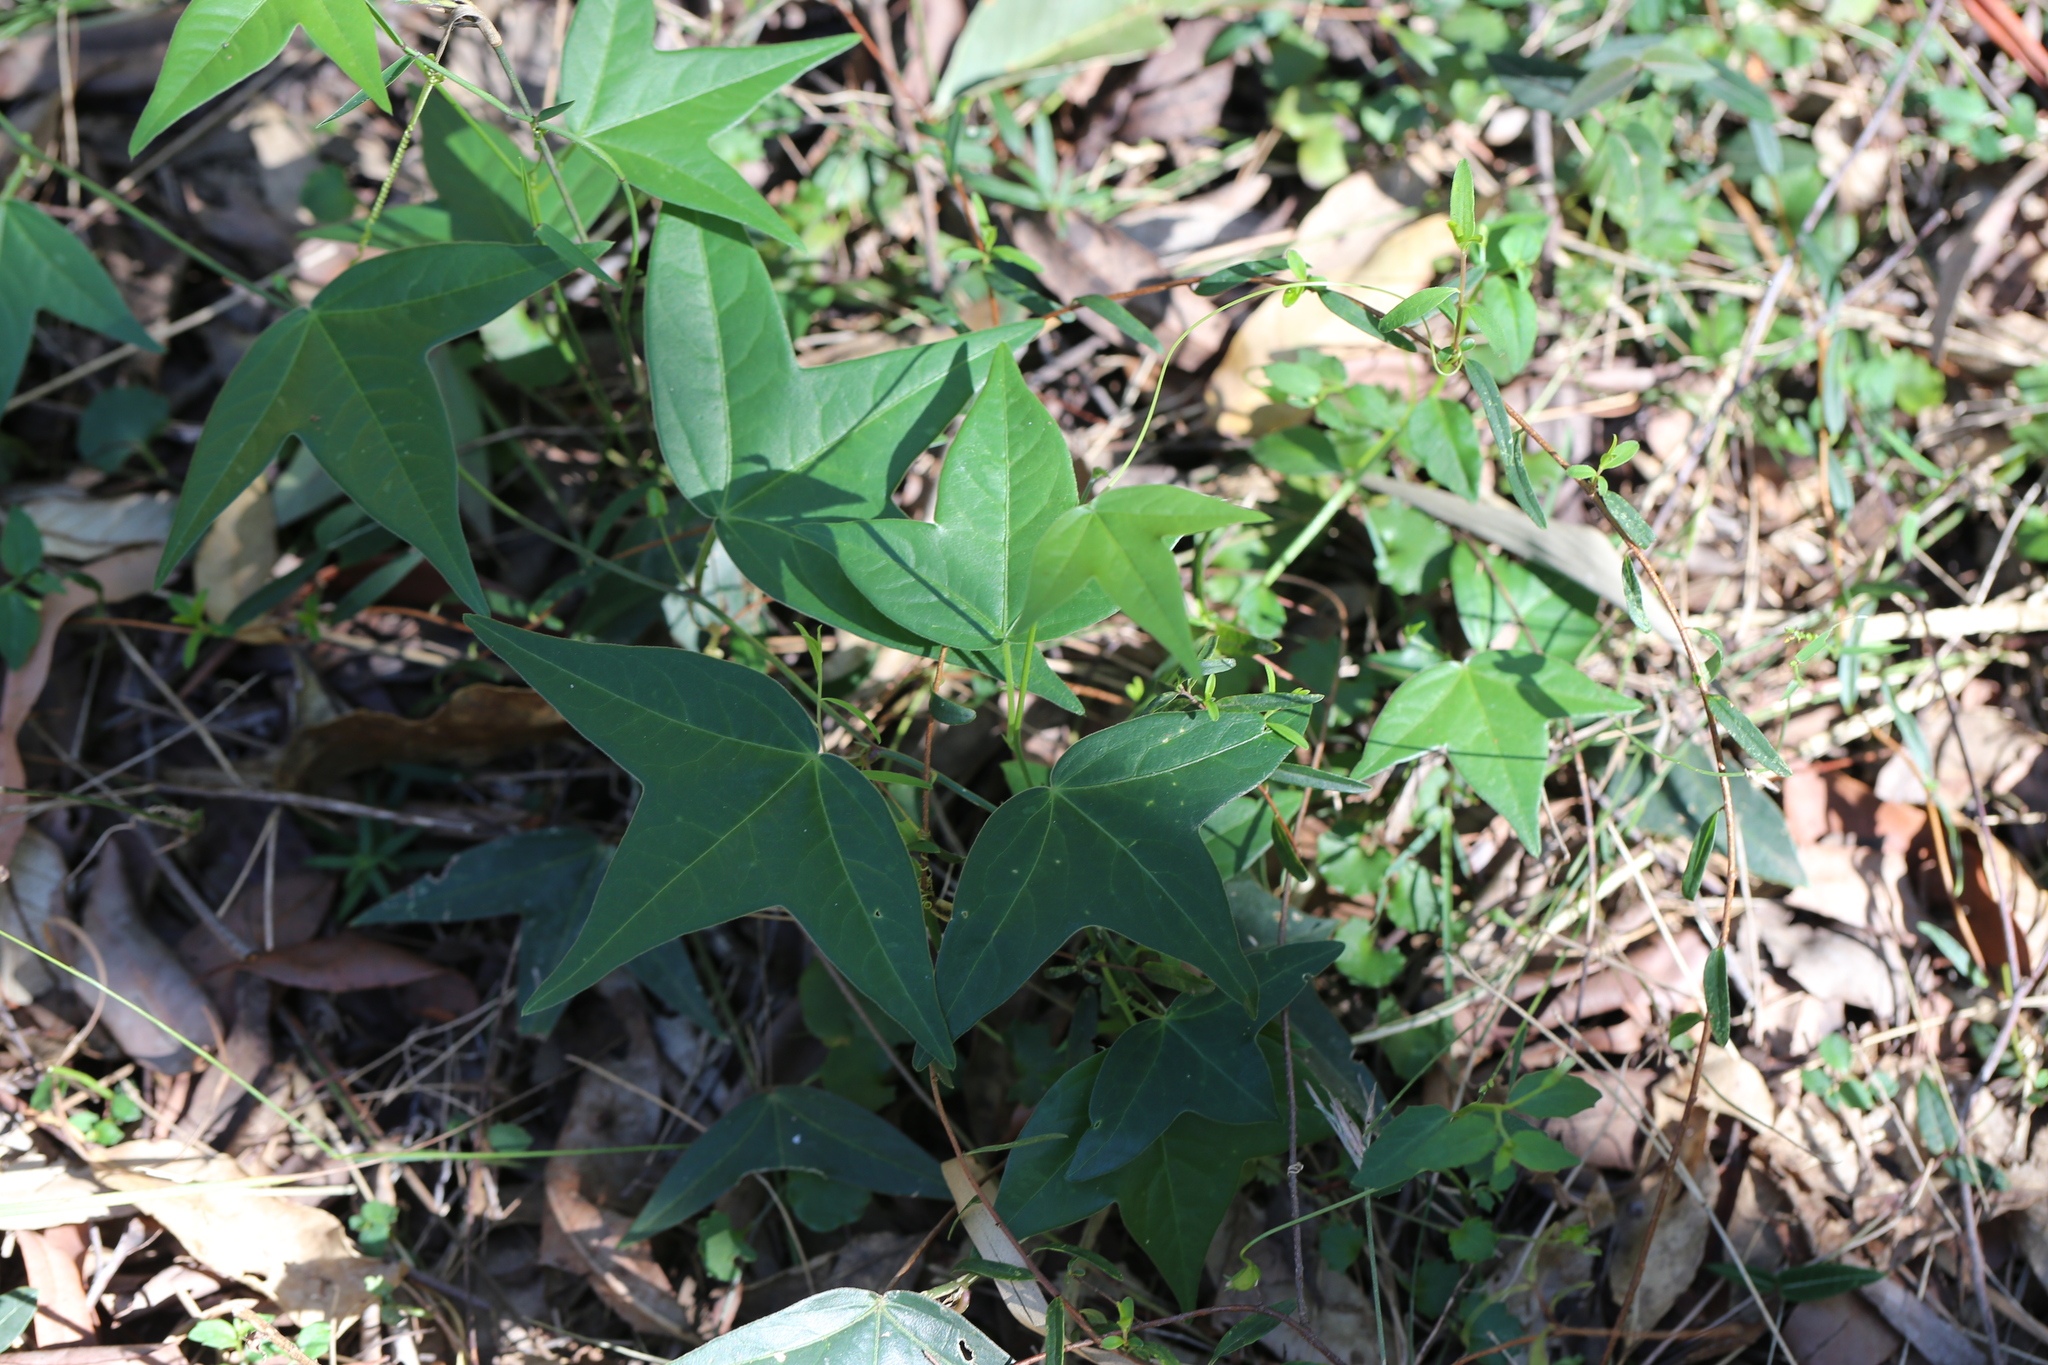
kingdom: Plantae
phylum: Tracheophyta
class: Magnoliopsida
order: Malpighiales
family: Passifloraceae
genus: Passiflora
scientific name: Passiflora suberosa
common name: Wild passionfruit
